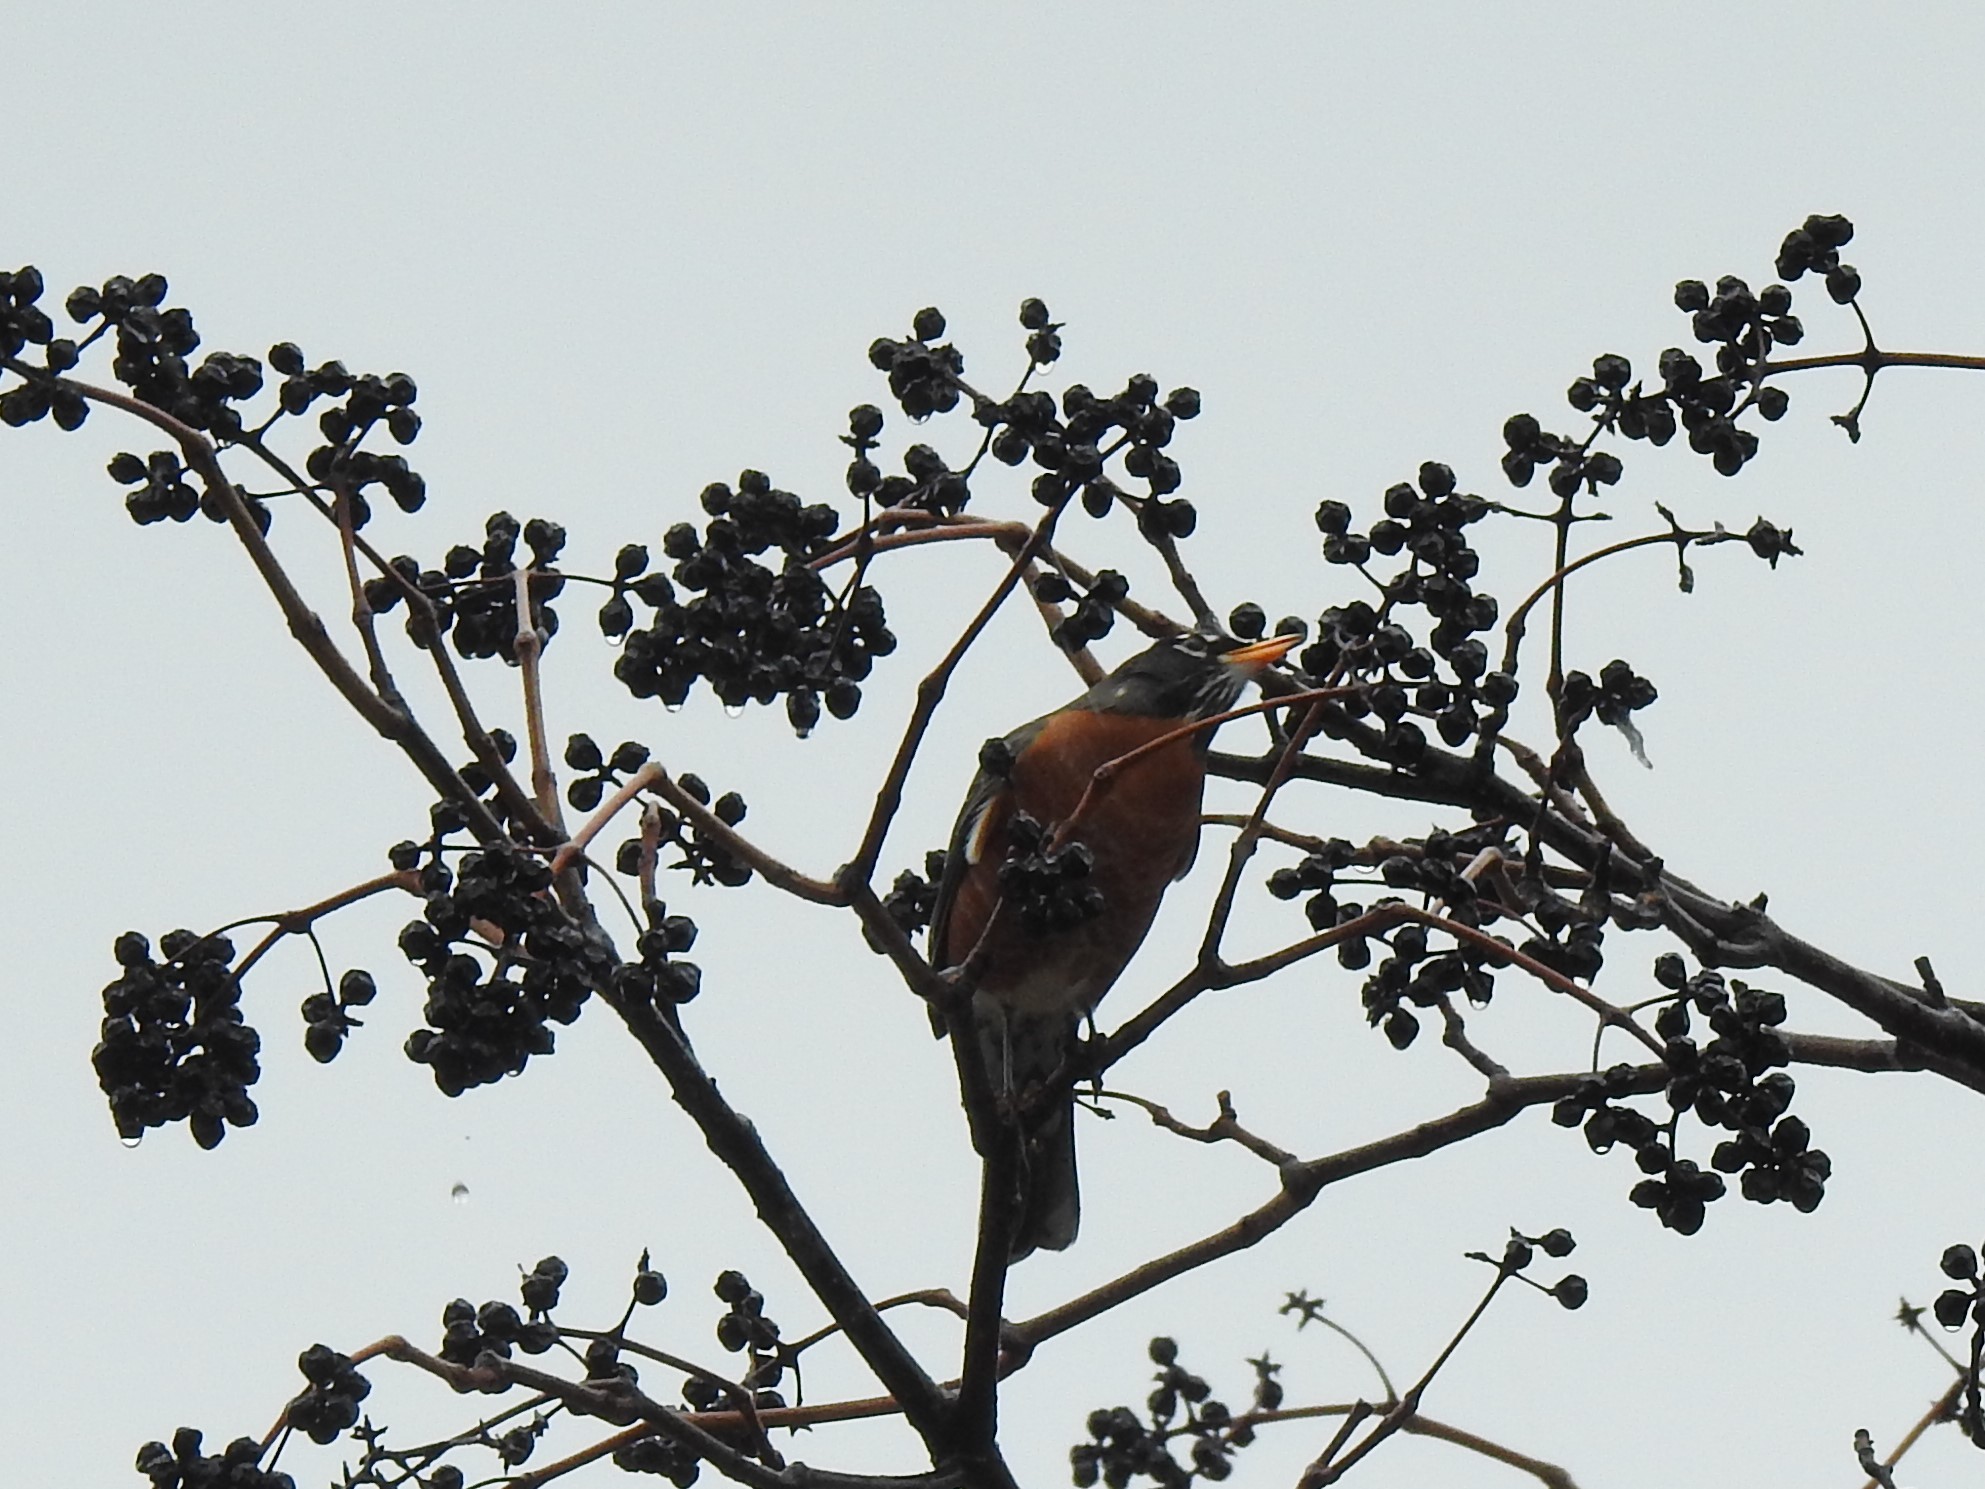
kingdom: Animalia
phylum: Chordata
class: Aves
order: Passeriformes
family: Turdidae
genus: Turdus
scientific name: Turdus migratorius
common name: American robin
